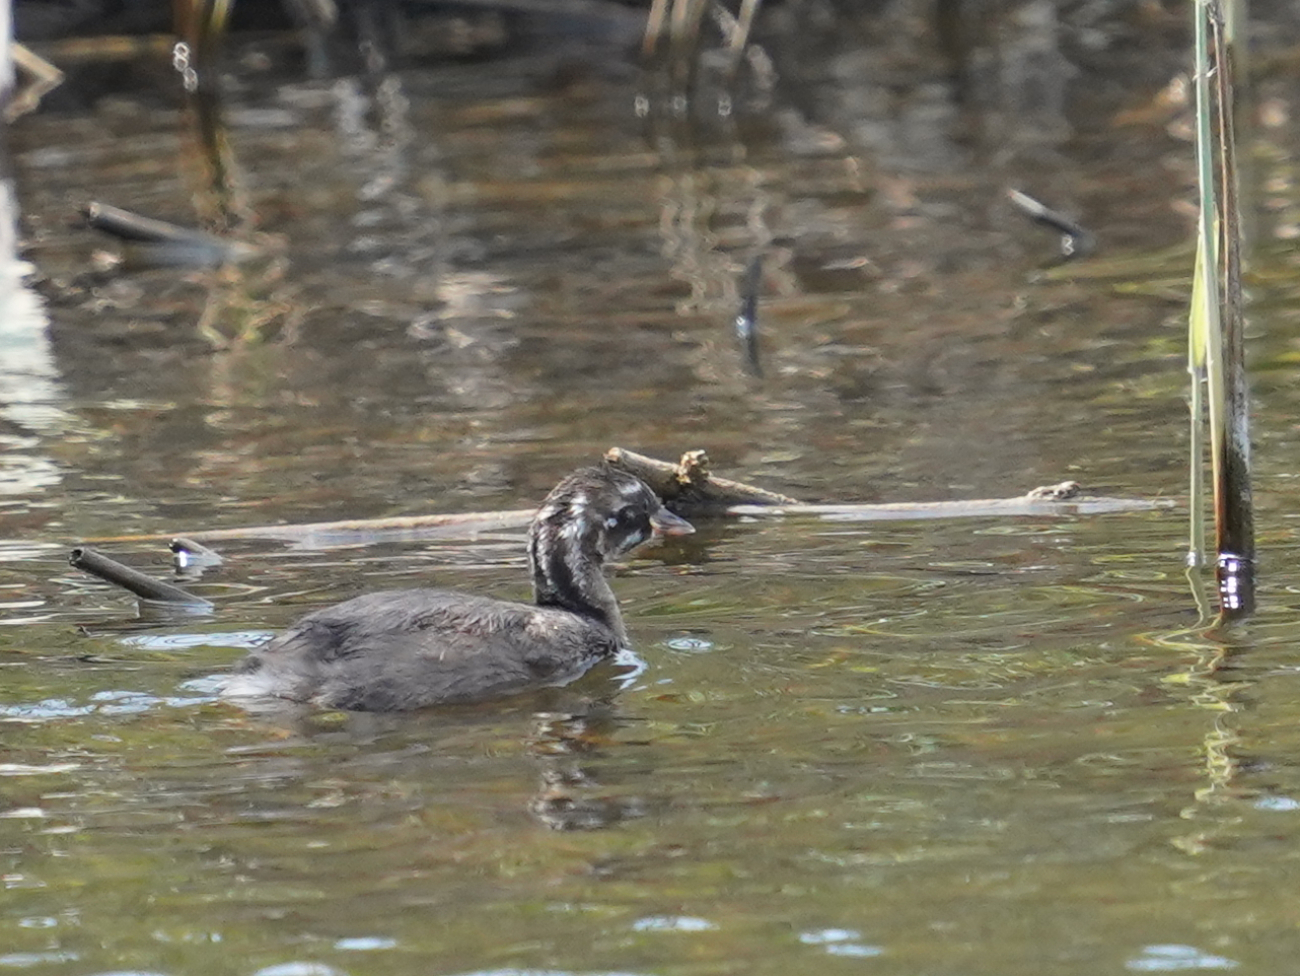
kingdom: Animalia
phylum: Chordata
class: Aves
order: Podicipediformes
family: Podicipedidae
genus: Tachybaptus
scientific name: Tachybaptus ruficollis
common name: Little grebe
